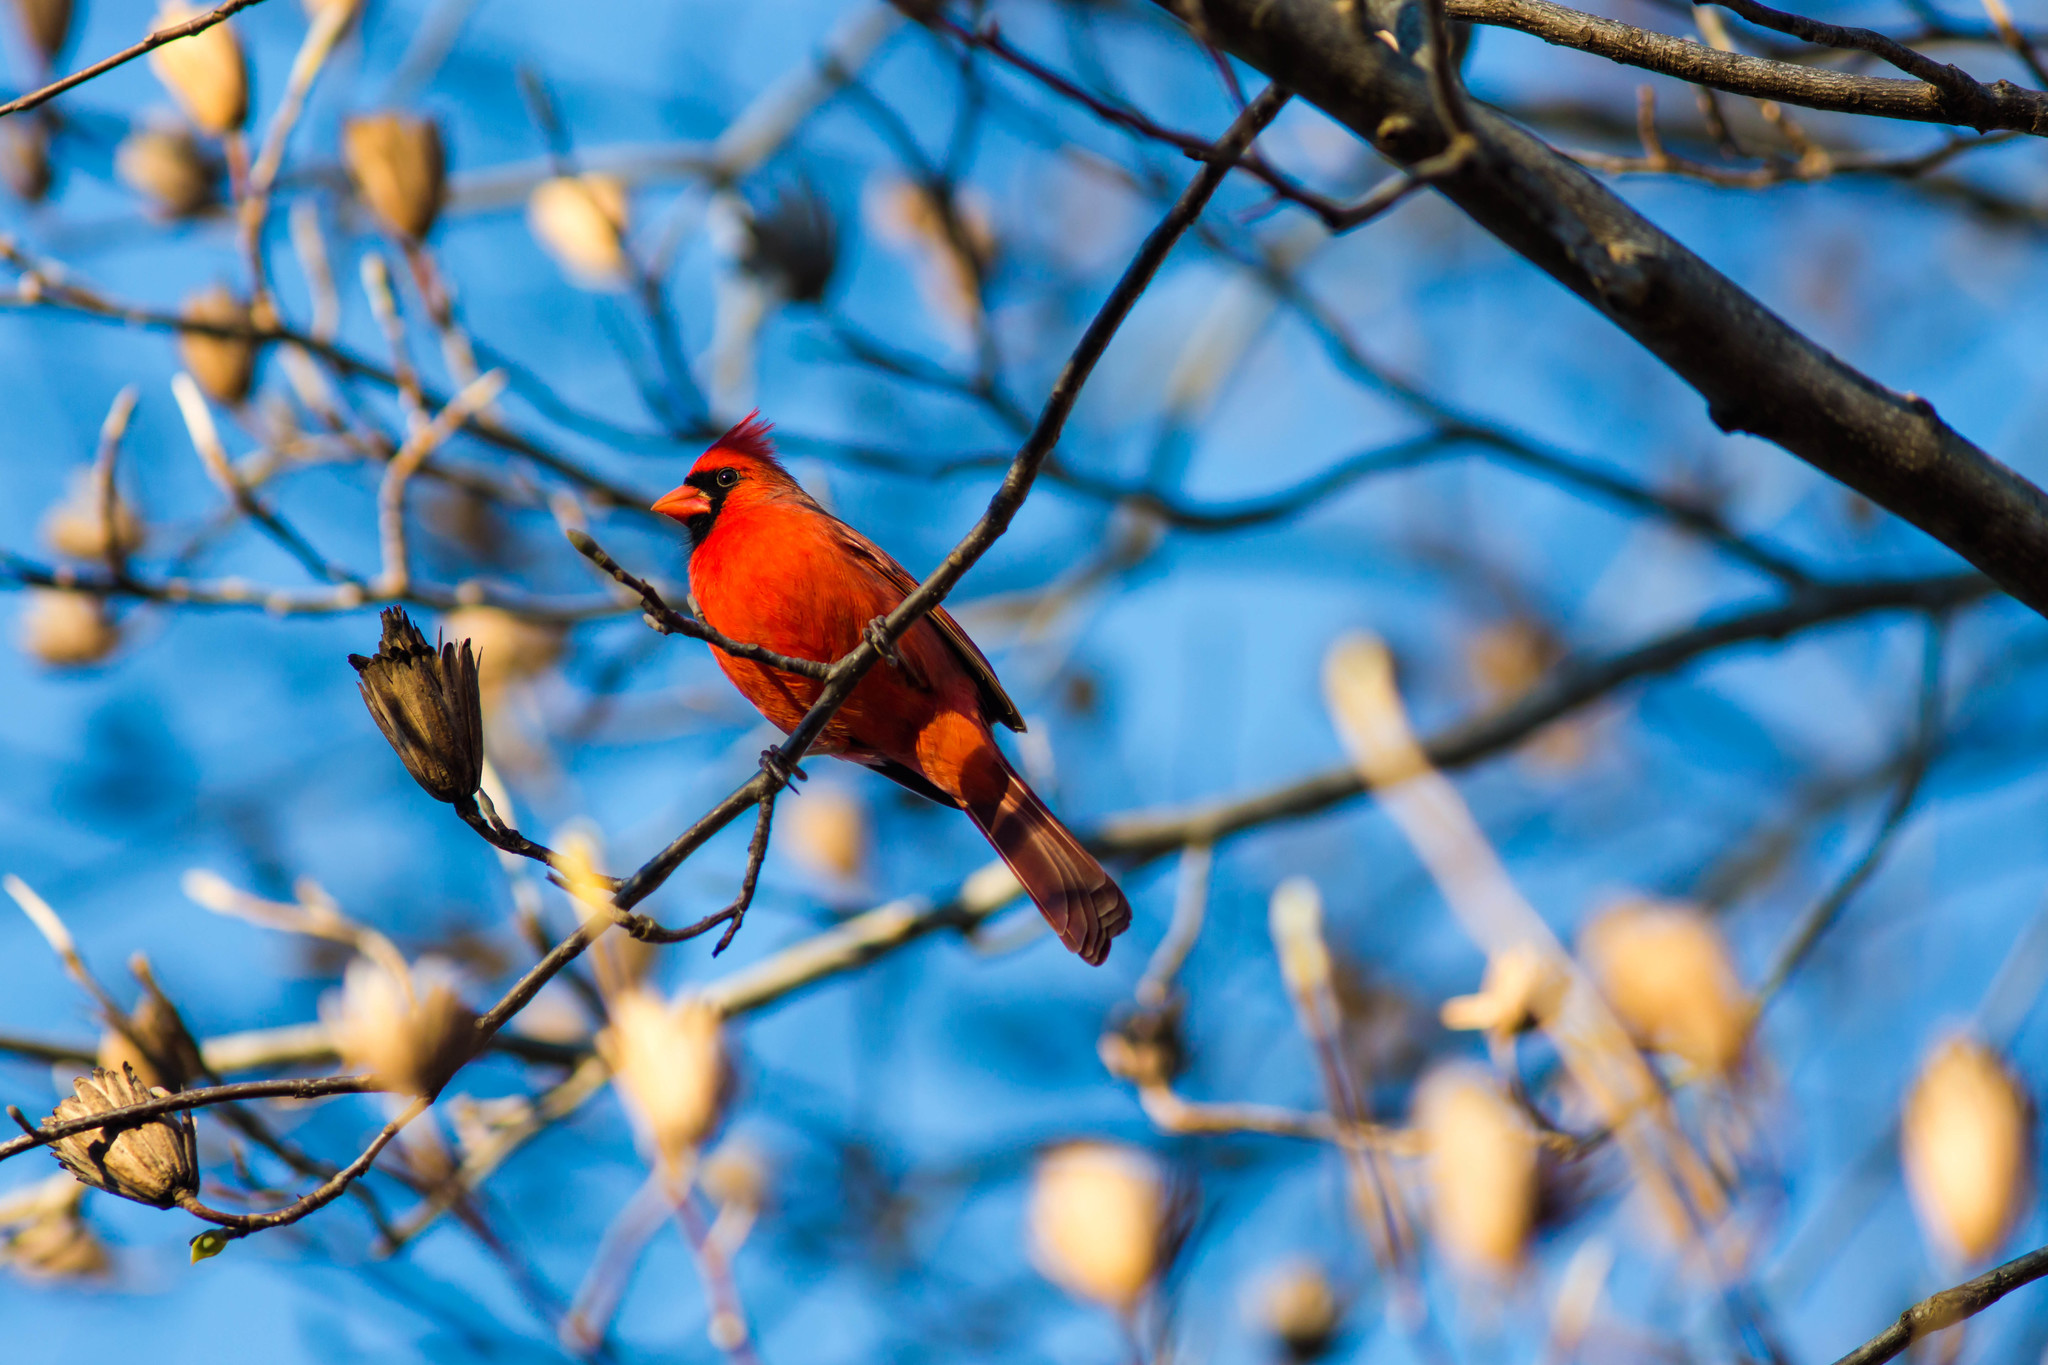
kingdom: Animalia
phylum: Chordata
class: Aves
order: Passeriformes
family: Cardinalidae
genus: Cardinalis
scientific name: Cardinalis cardinalis
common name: Northern cardinal
